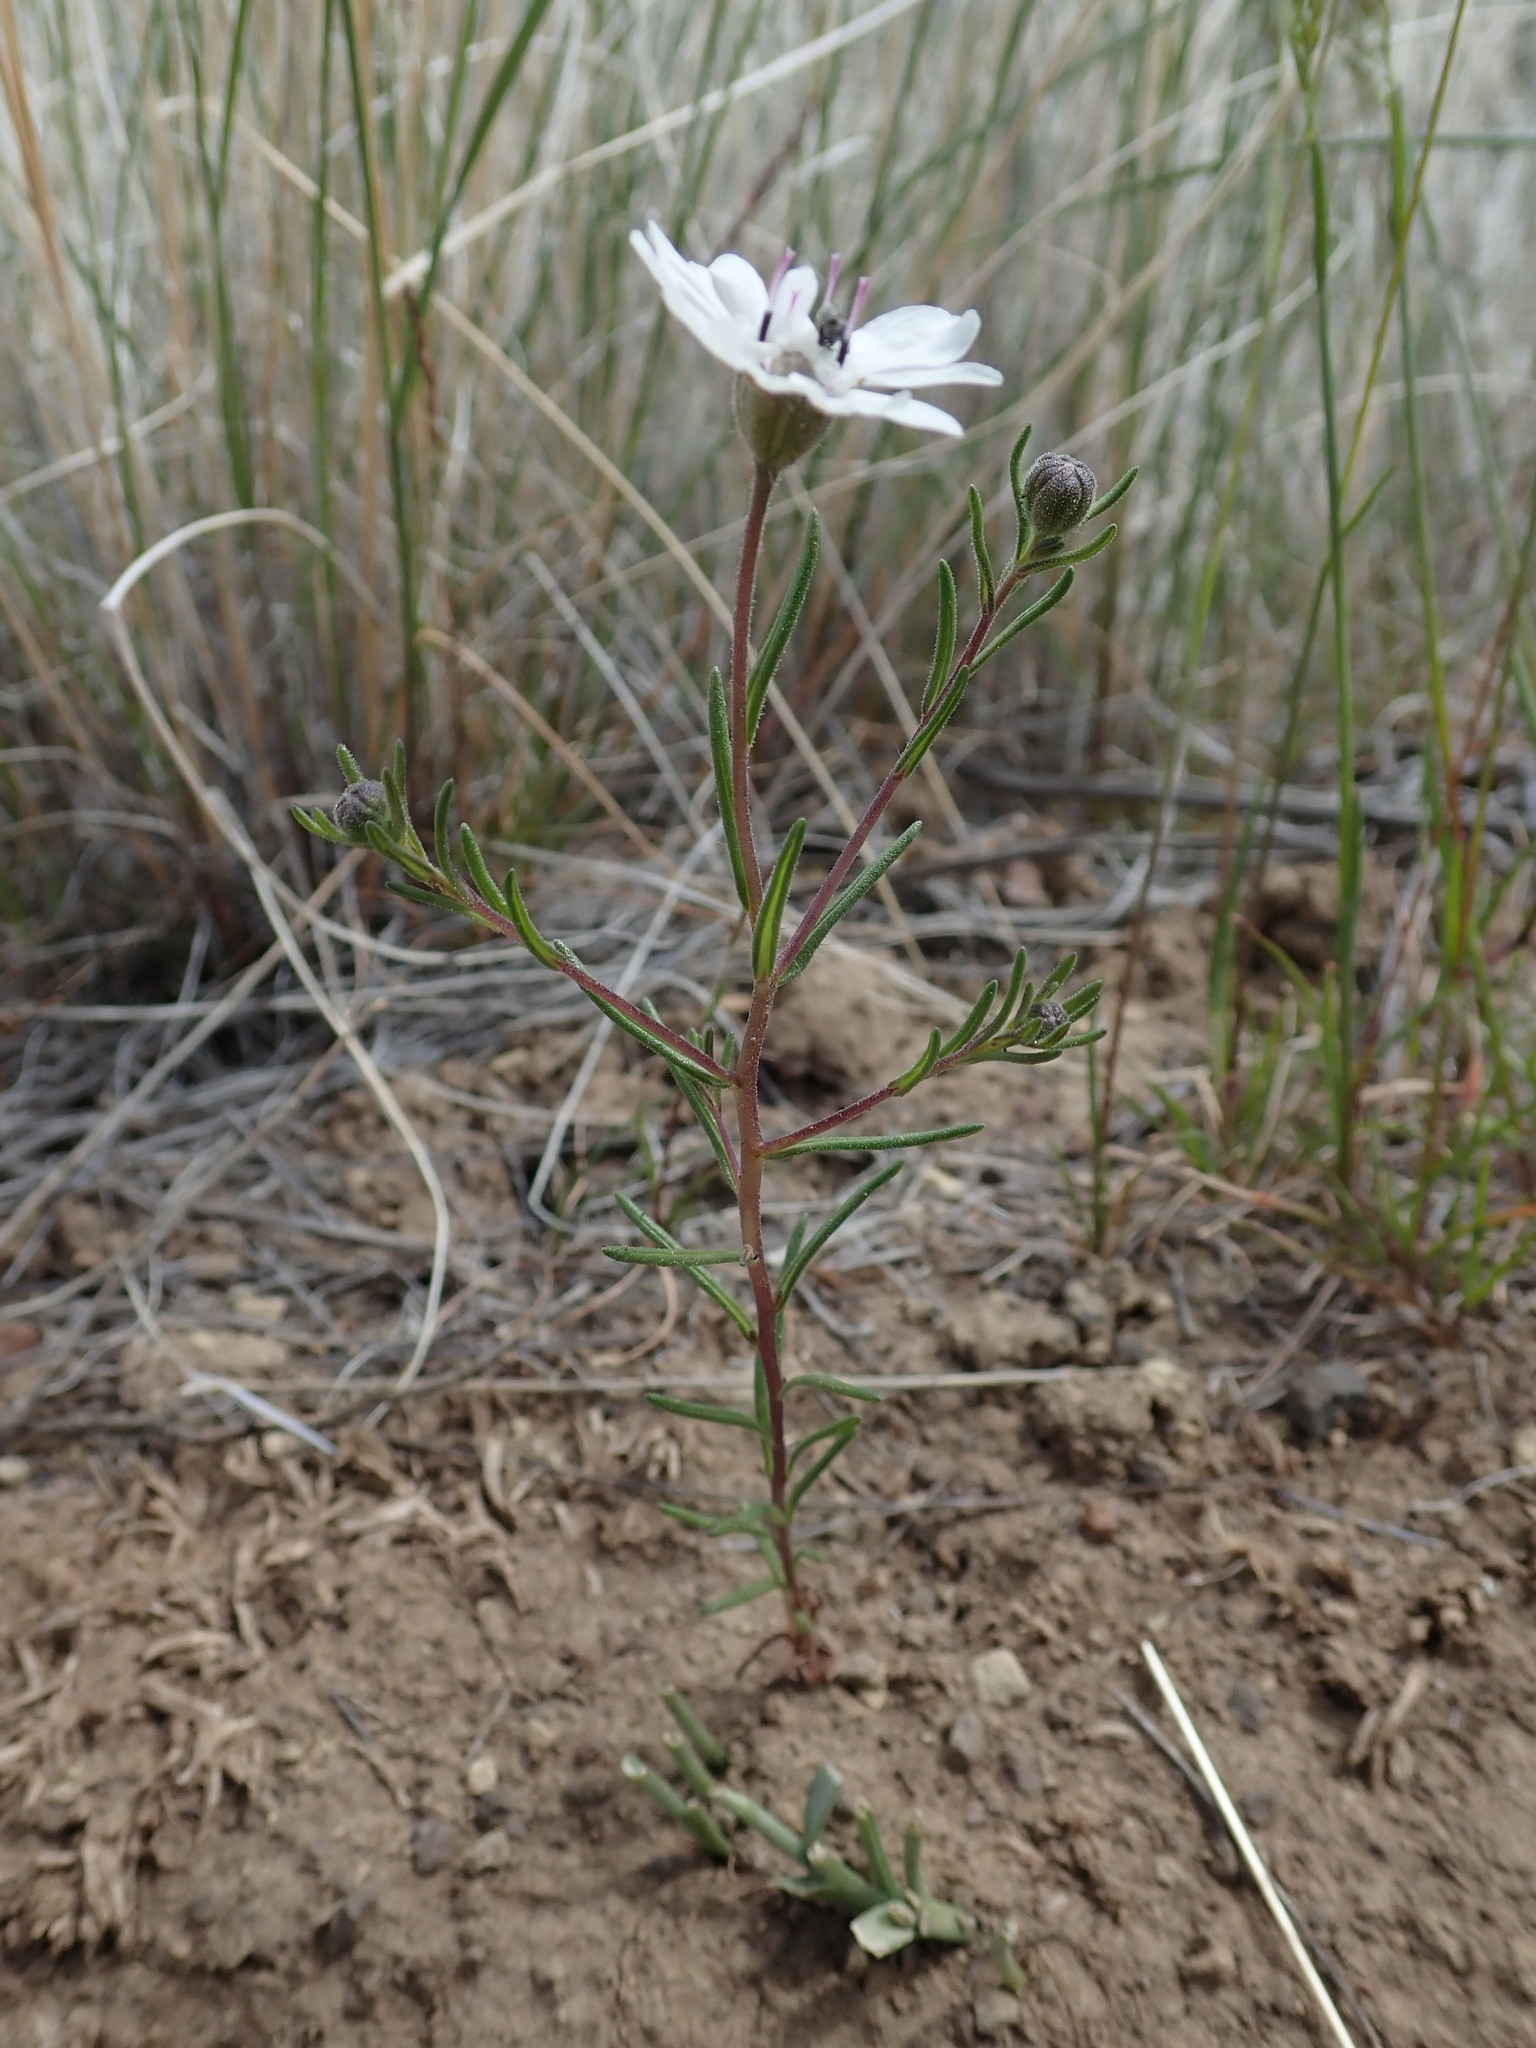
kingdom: Plantae
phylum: Tracheophyta
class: Magnoliopsida
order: Asterales
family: Asteraceae
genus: Blepharipappus
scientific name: Blepharipappus scaber
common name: Rough blepharipappus
